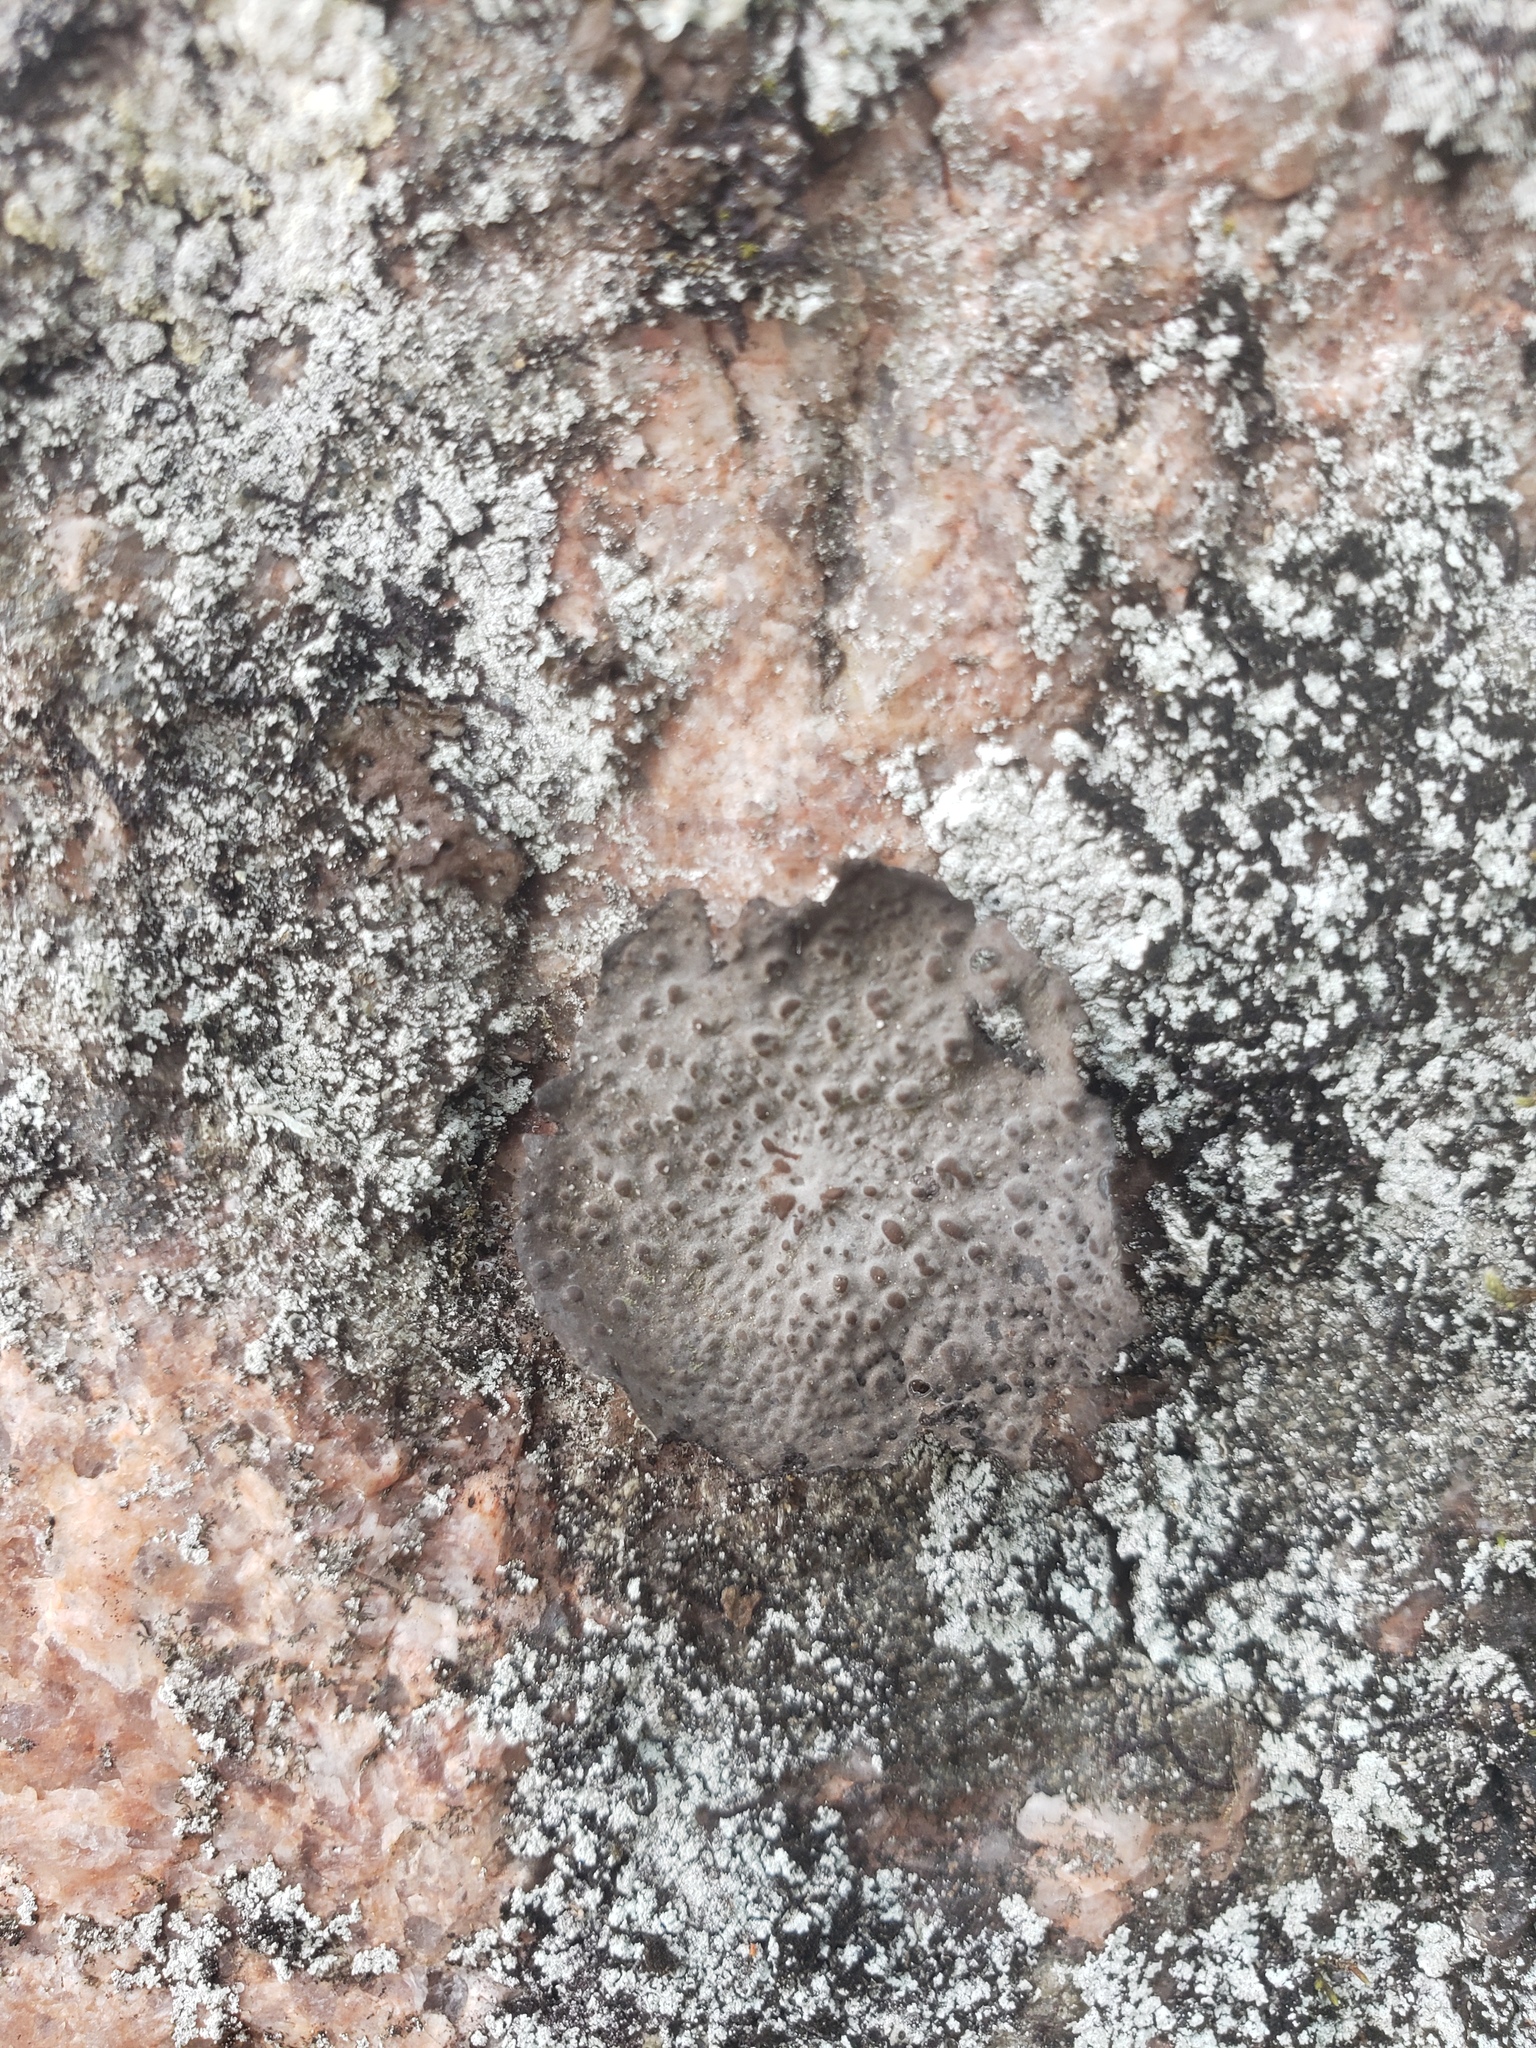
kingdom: Fungi
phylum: Ascomycota
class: Lecanoromycetes
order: Umbilicariales
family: Umbilicariaceae
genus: Lasallia
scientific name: Lasallia papulosa
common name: Common toadskin lichen
